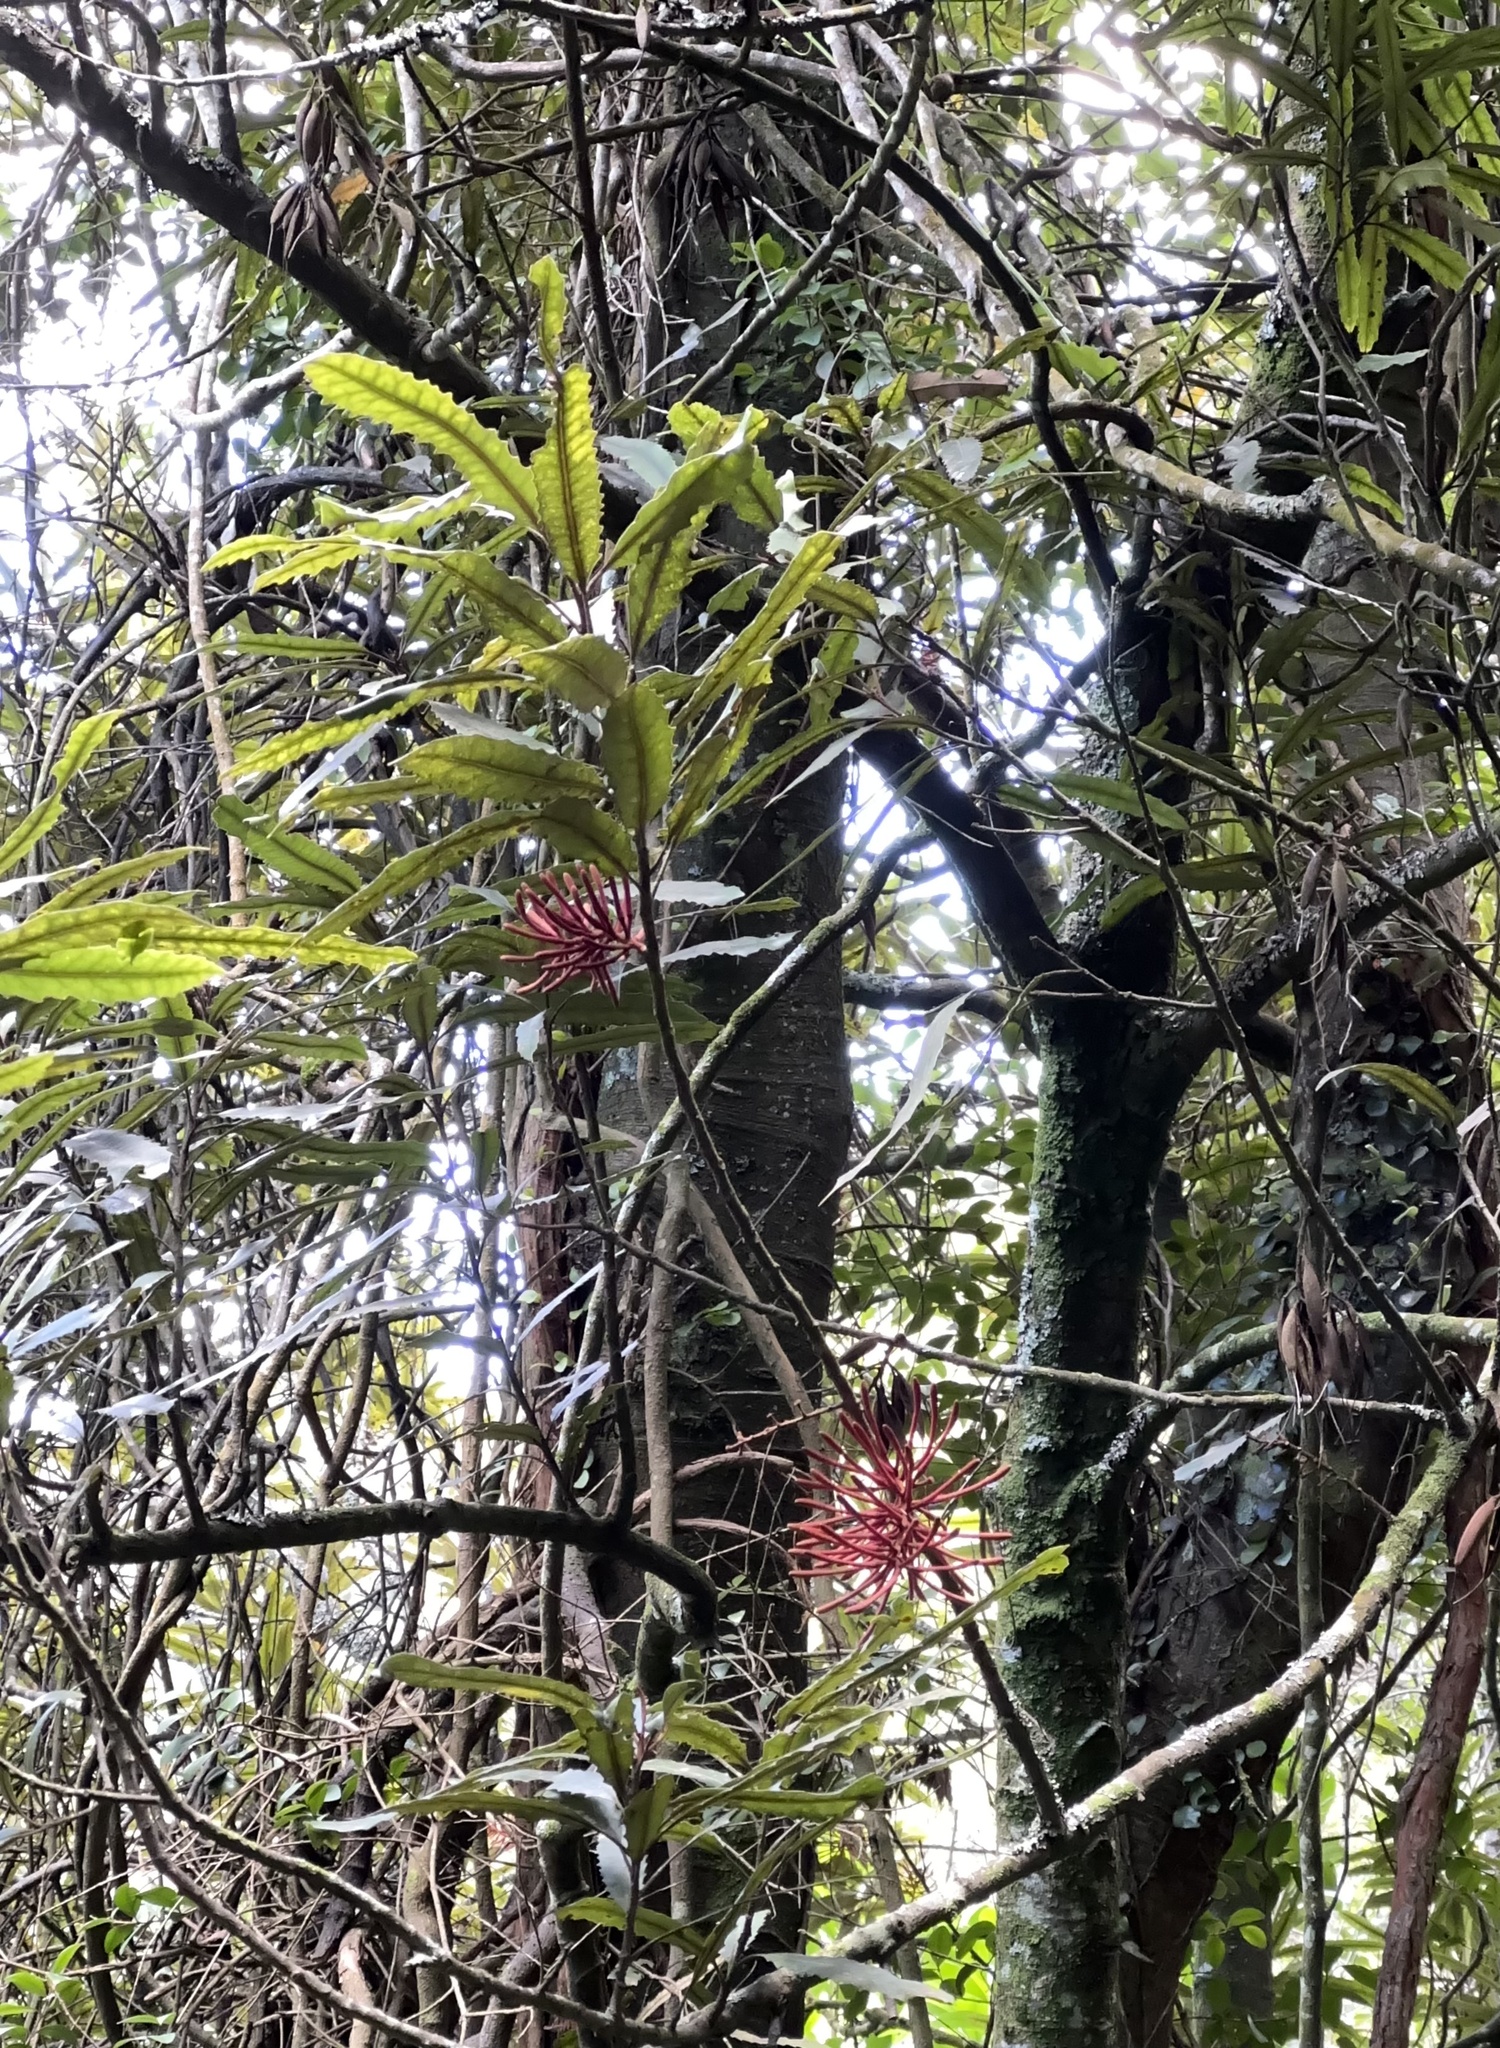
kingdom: Plantae
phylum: Tracheophyta
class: Magnoliopsida
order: Proteales
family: Proteaceae
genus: Knightia
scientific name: Knightia excelsa
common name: New zealand-honeysuckle
